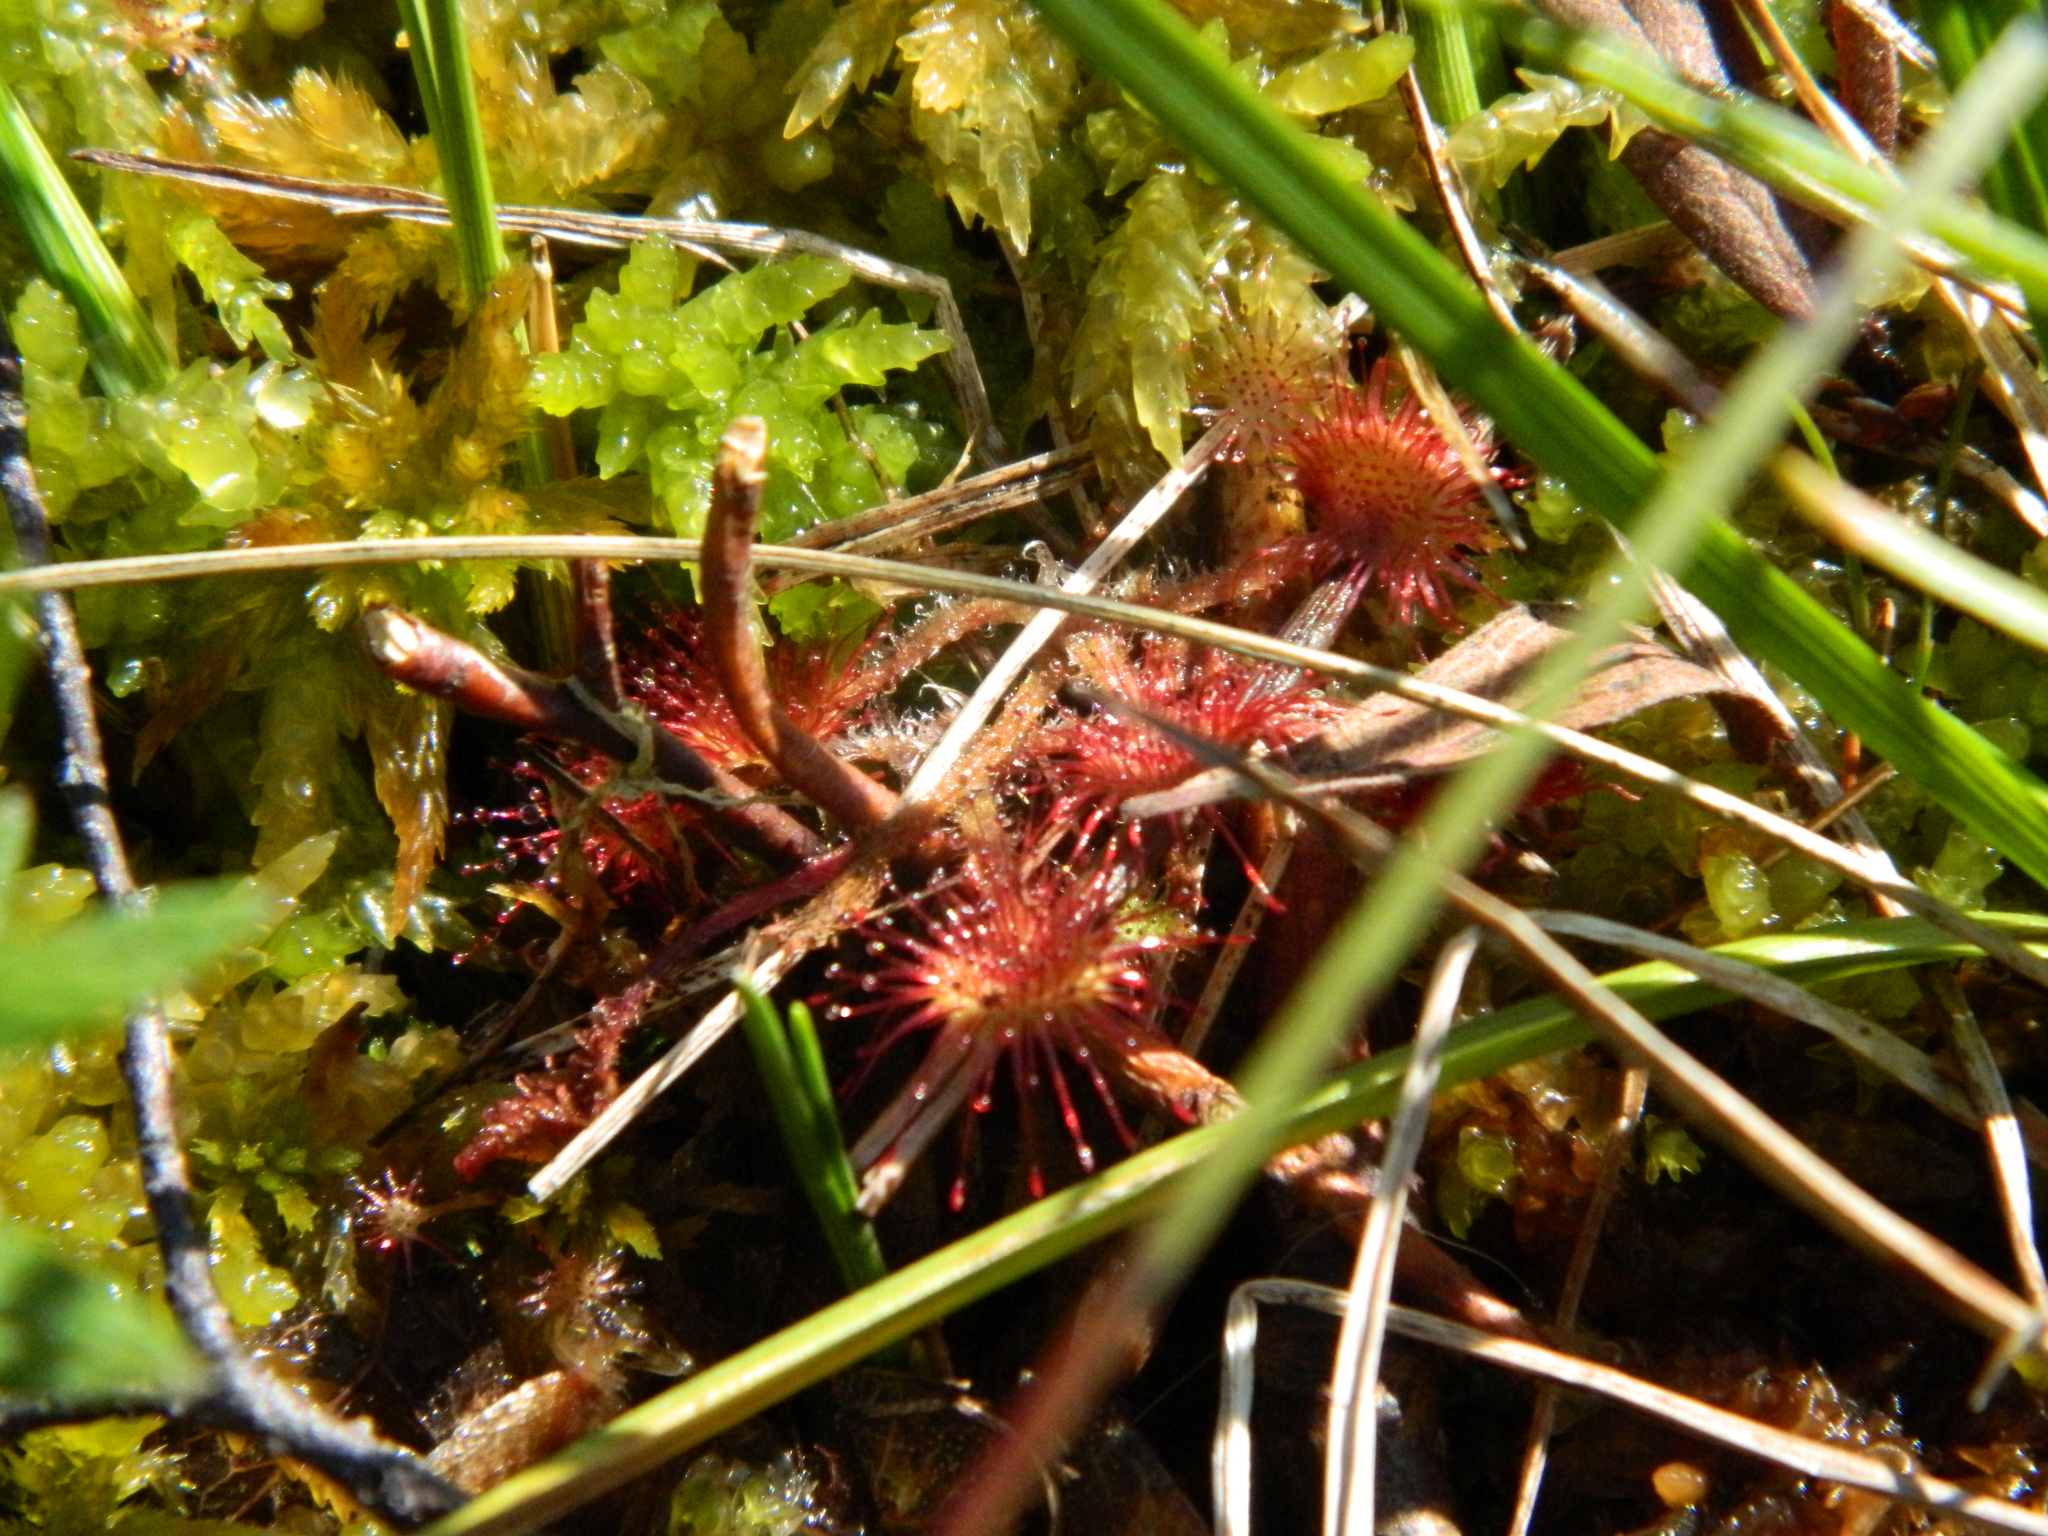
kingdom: Plantae
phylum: Tracheophyta
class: Magnoliopsida
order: Caryophyllales
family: Droseraceae
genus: Drosera
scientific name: Drosera rotundifolia
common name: Round-leaved sundew
